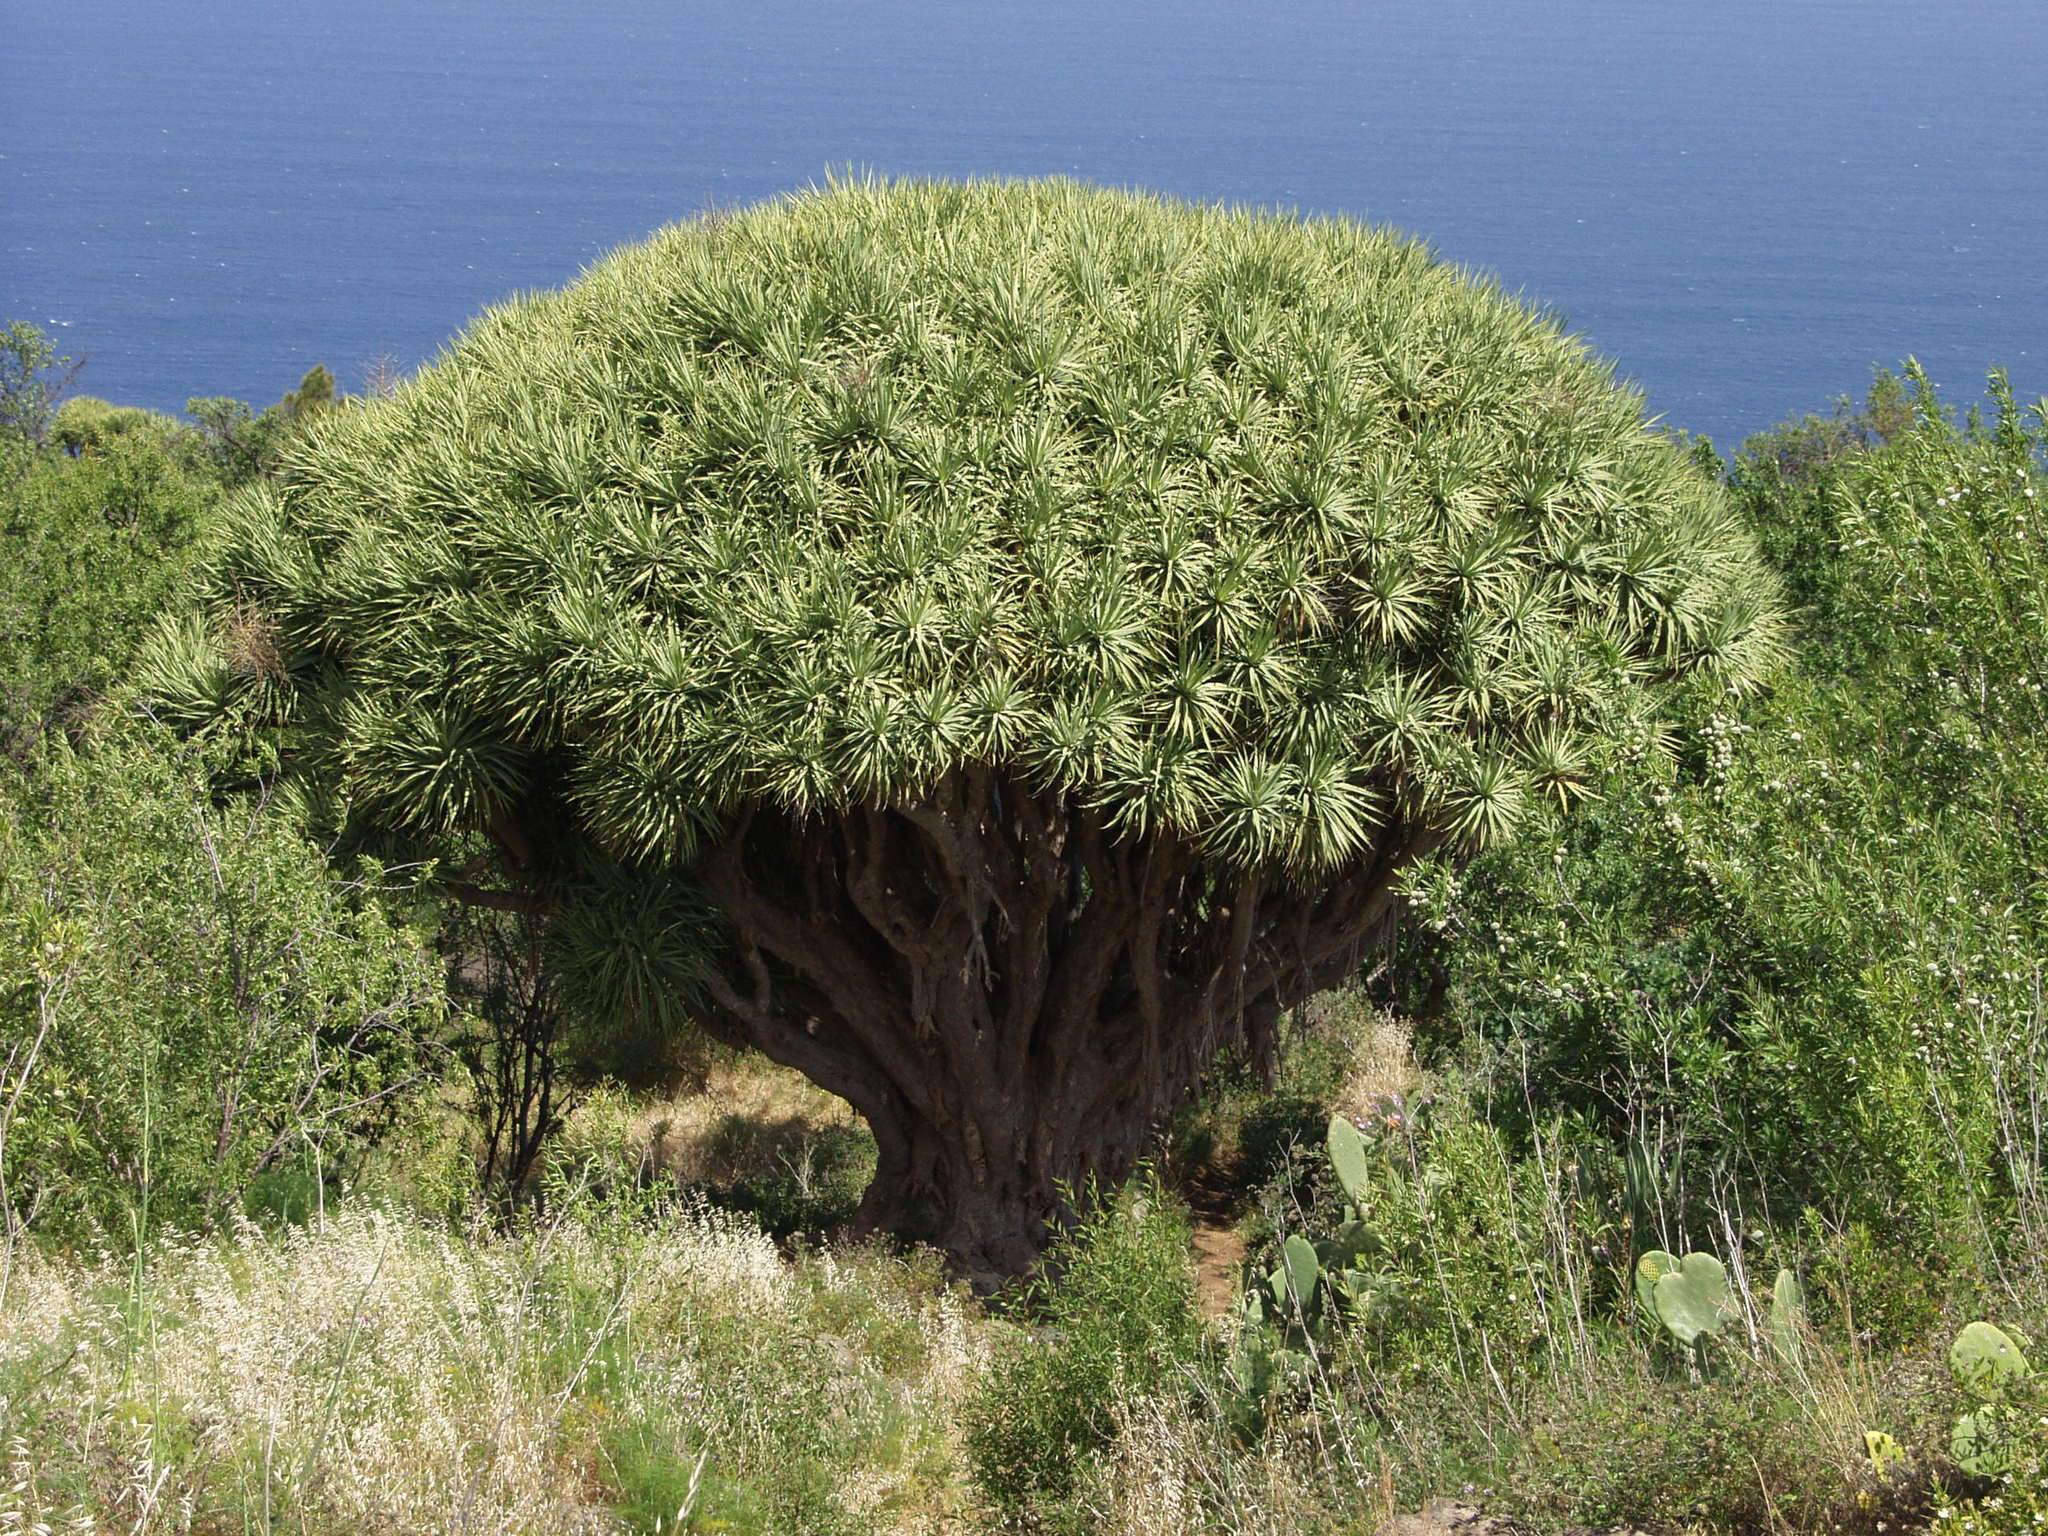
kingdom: Plantae
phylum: Tracheophyta
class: Liliopsida
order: Asparagales
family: Asparagaceae
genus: Dracaena
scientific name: Dracaena draco
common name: Canary island dragon tree
